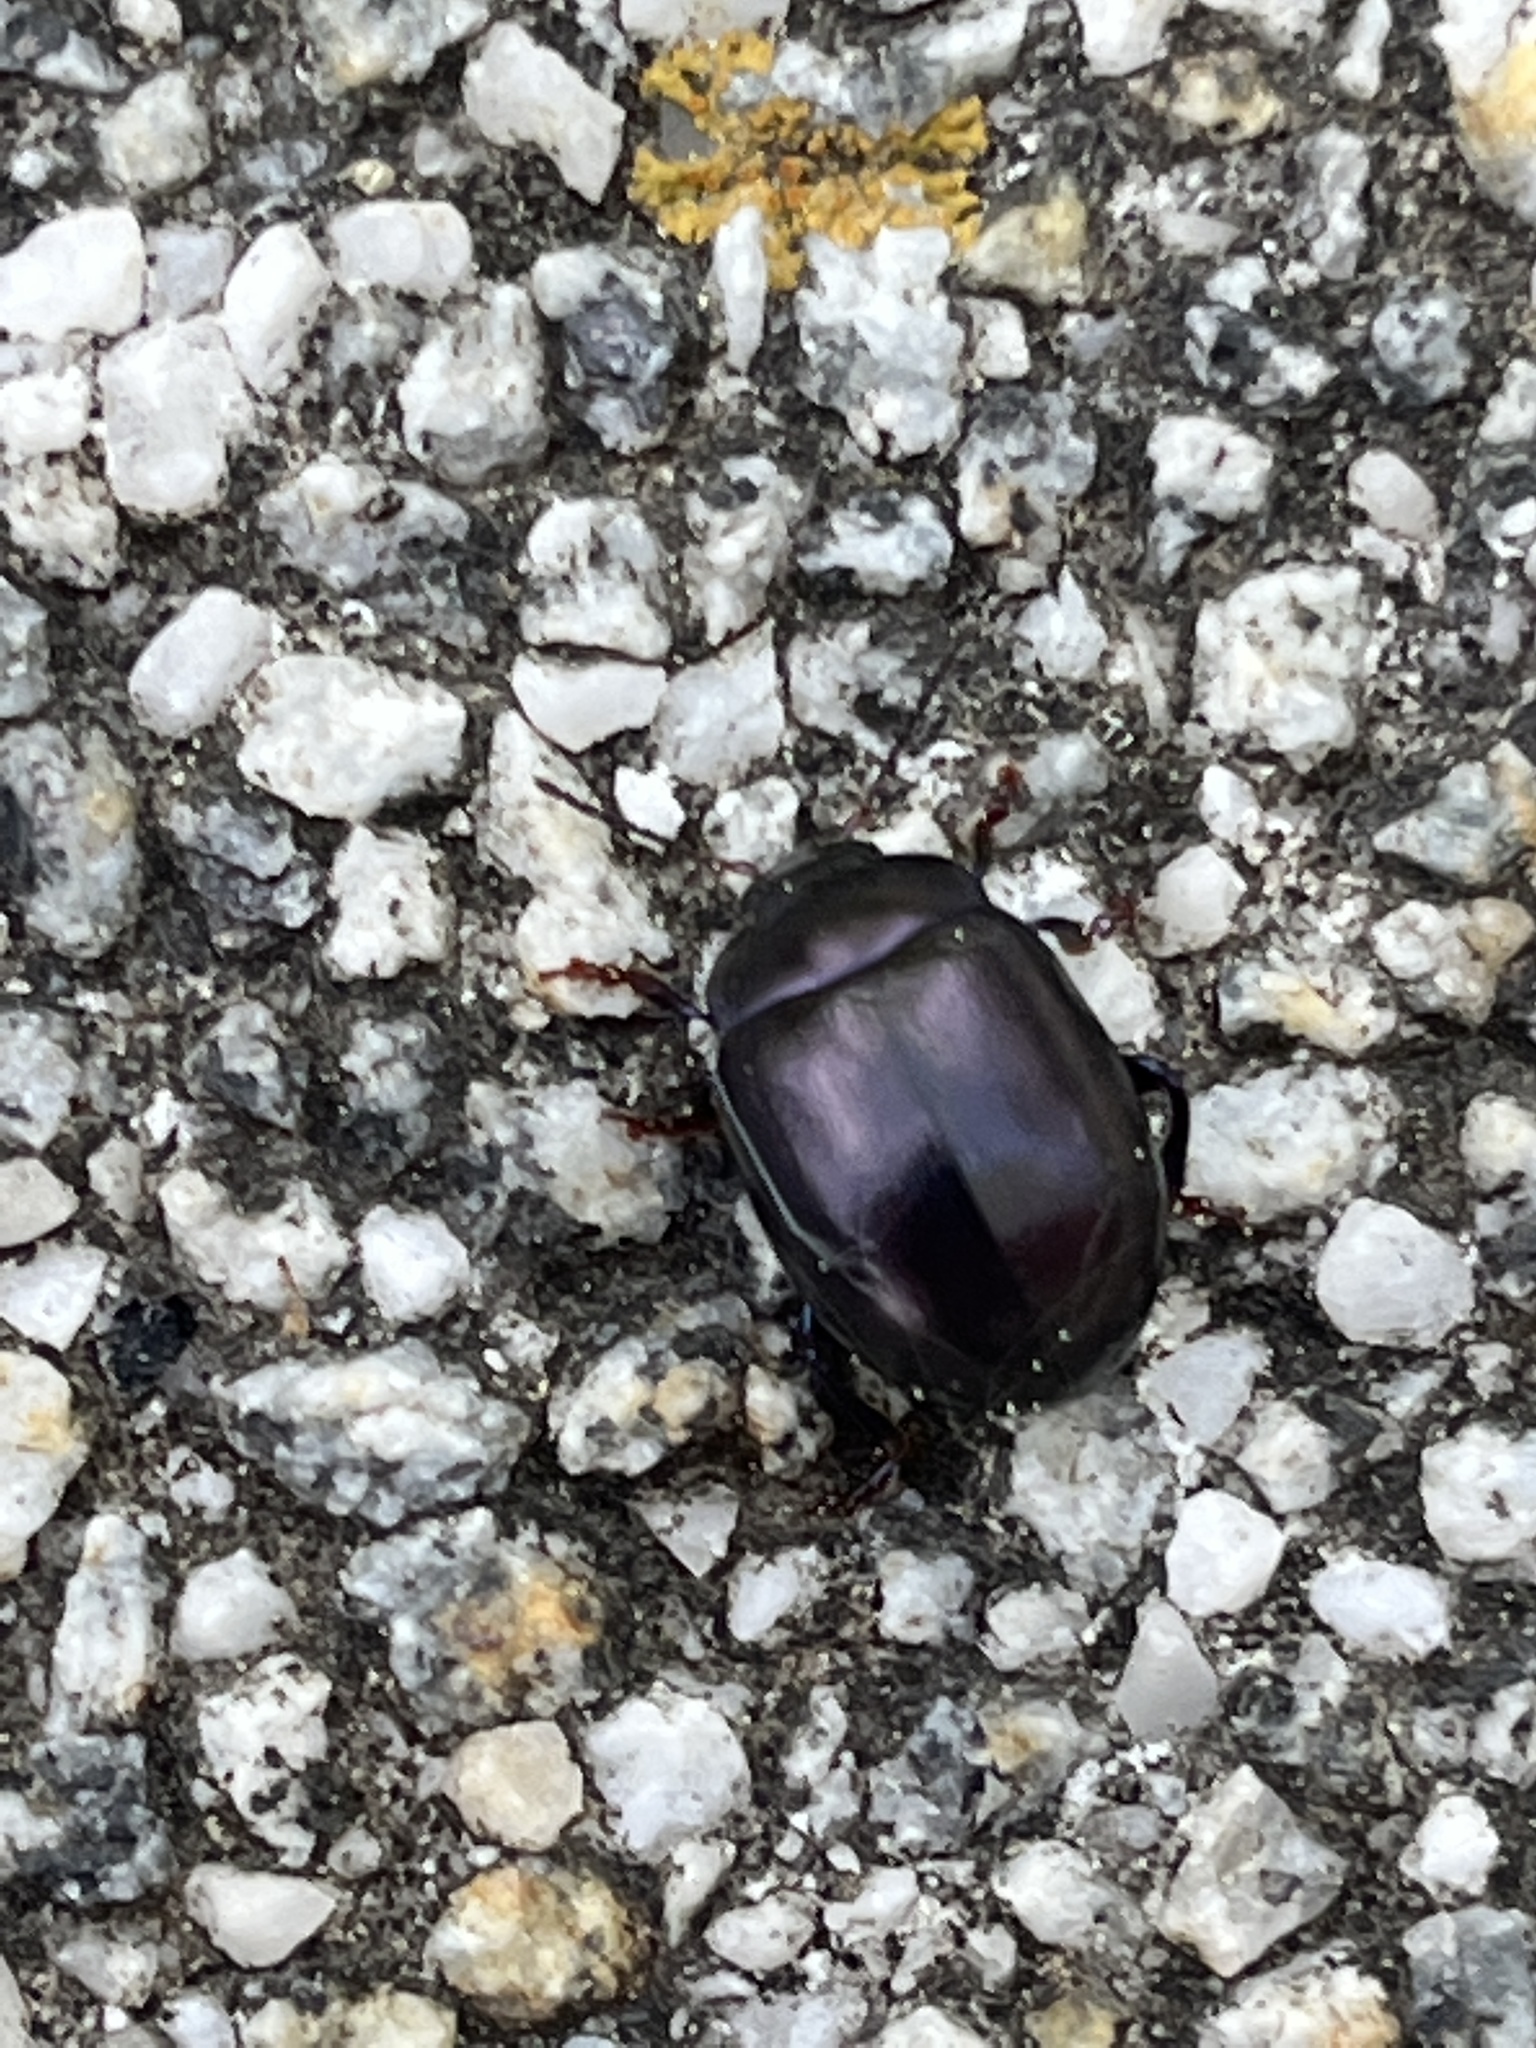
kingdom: Animalia
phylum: Arthropoda
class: Insecta
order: Coleoptera
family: Chrysomelidae
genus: Chrysolina
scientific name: Chrysolina sturmi
